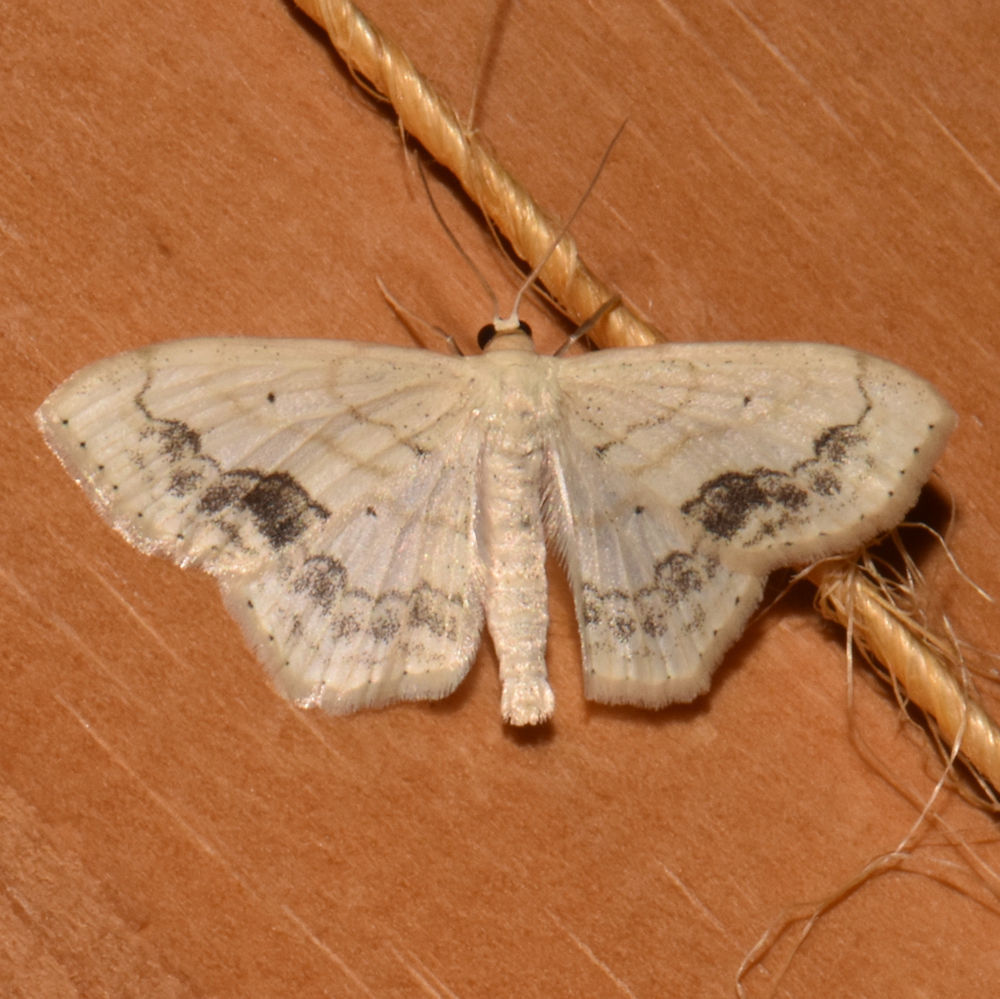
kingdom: Animalia
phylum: Arthropoda
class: Insecta
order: Lepidoptera
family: Geometridae
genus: Scopula
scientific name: Scopula limboundata
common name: Large lace border
